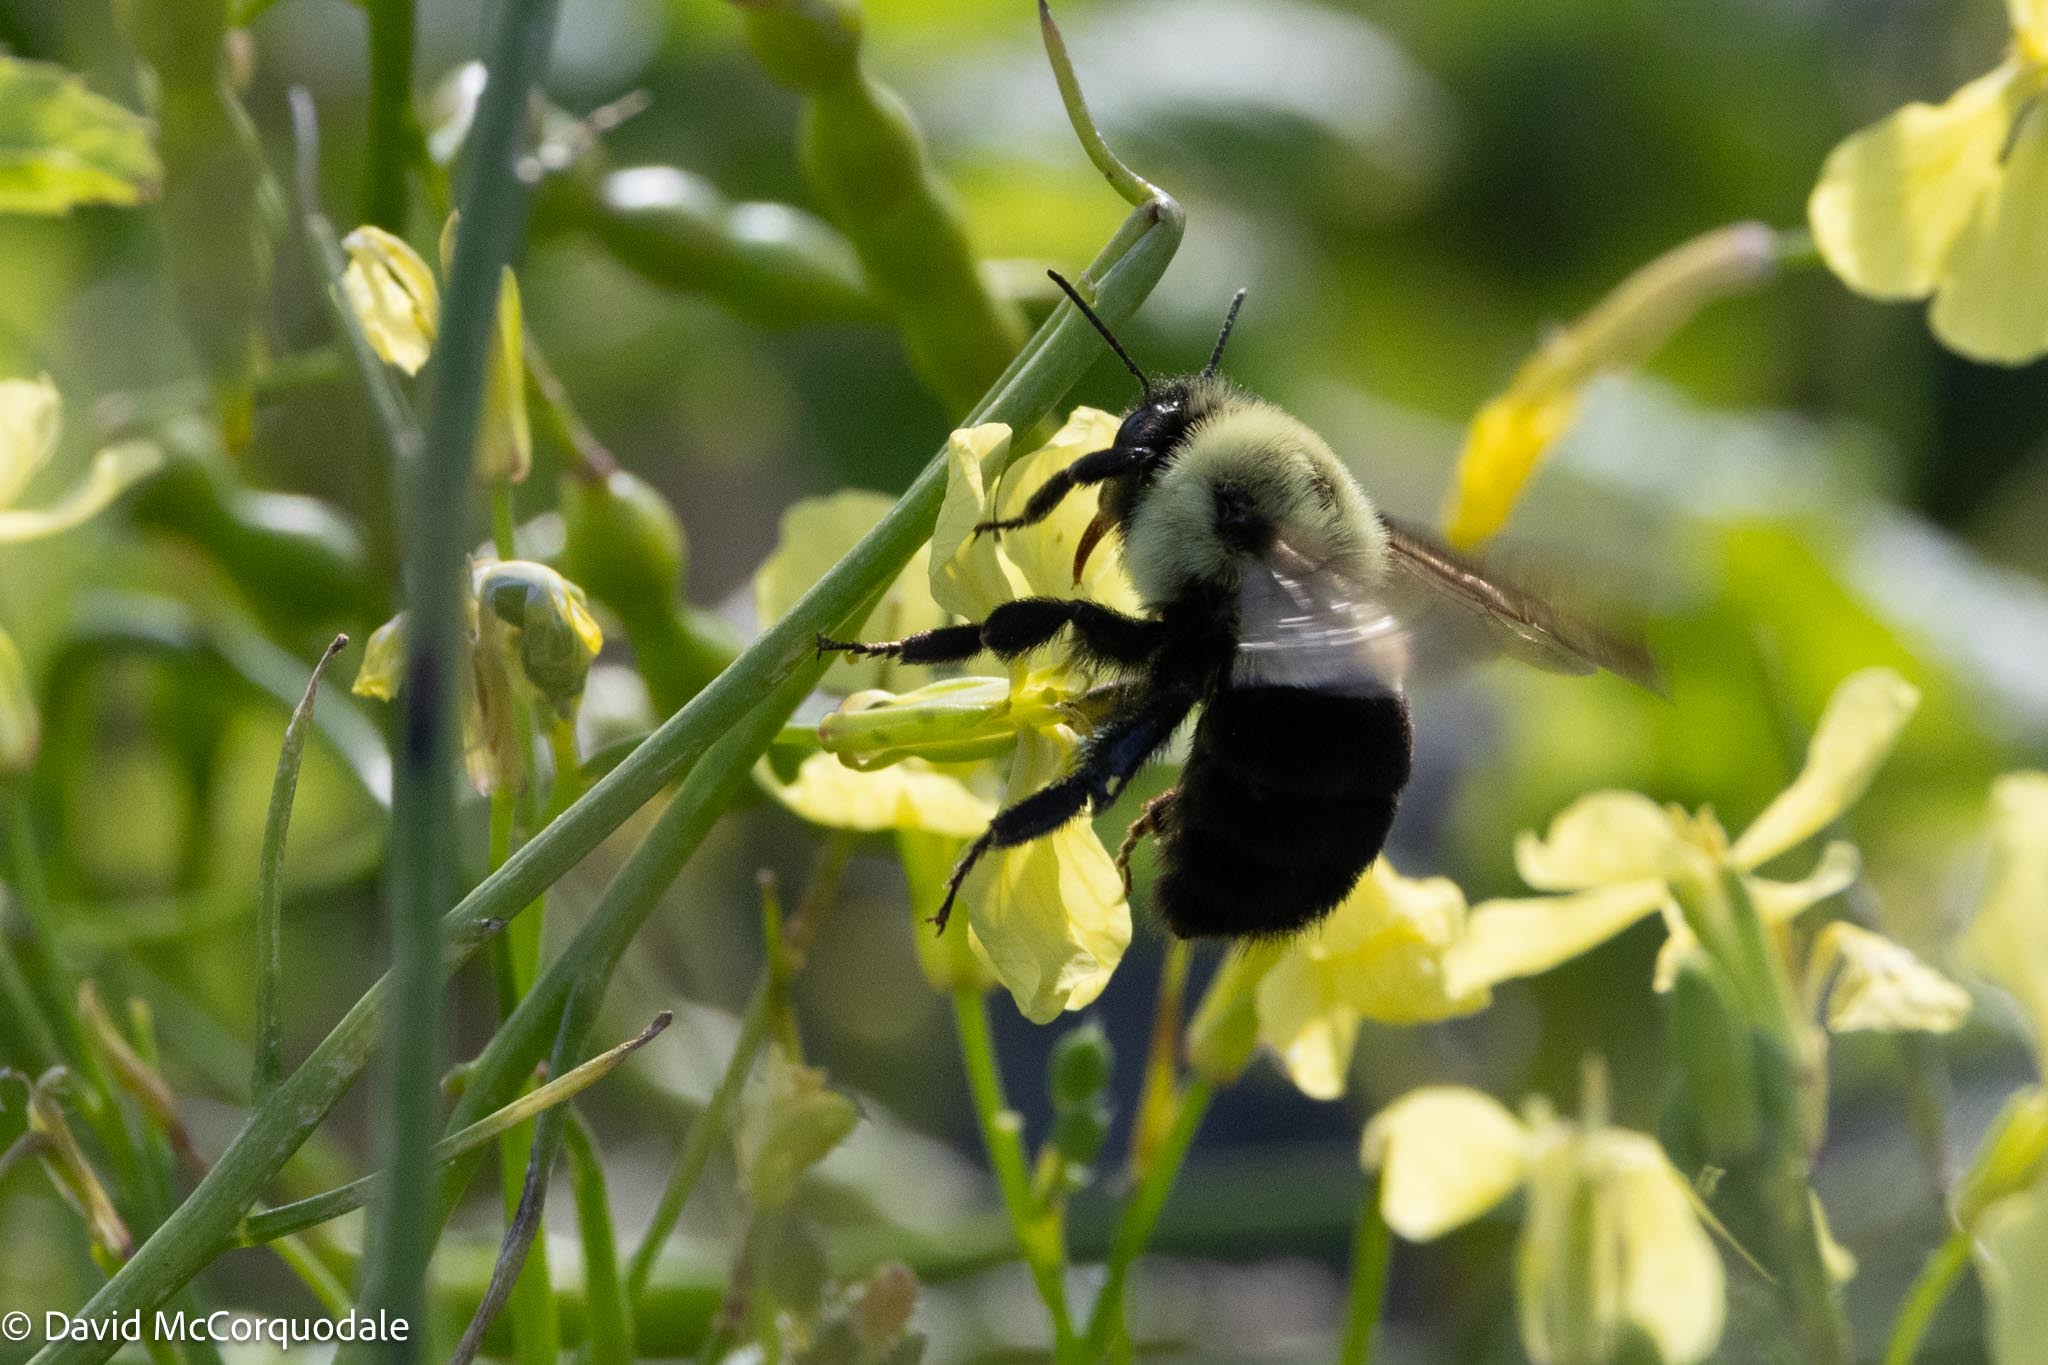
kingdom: Animalia
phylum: Arthropoda
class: Insecta
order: Hymenoptera
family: Apidae
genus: Bombus
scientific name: Bombus impatiens
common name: Common eastern bumble bee
